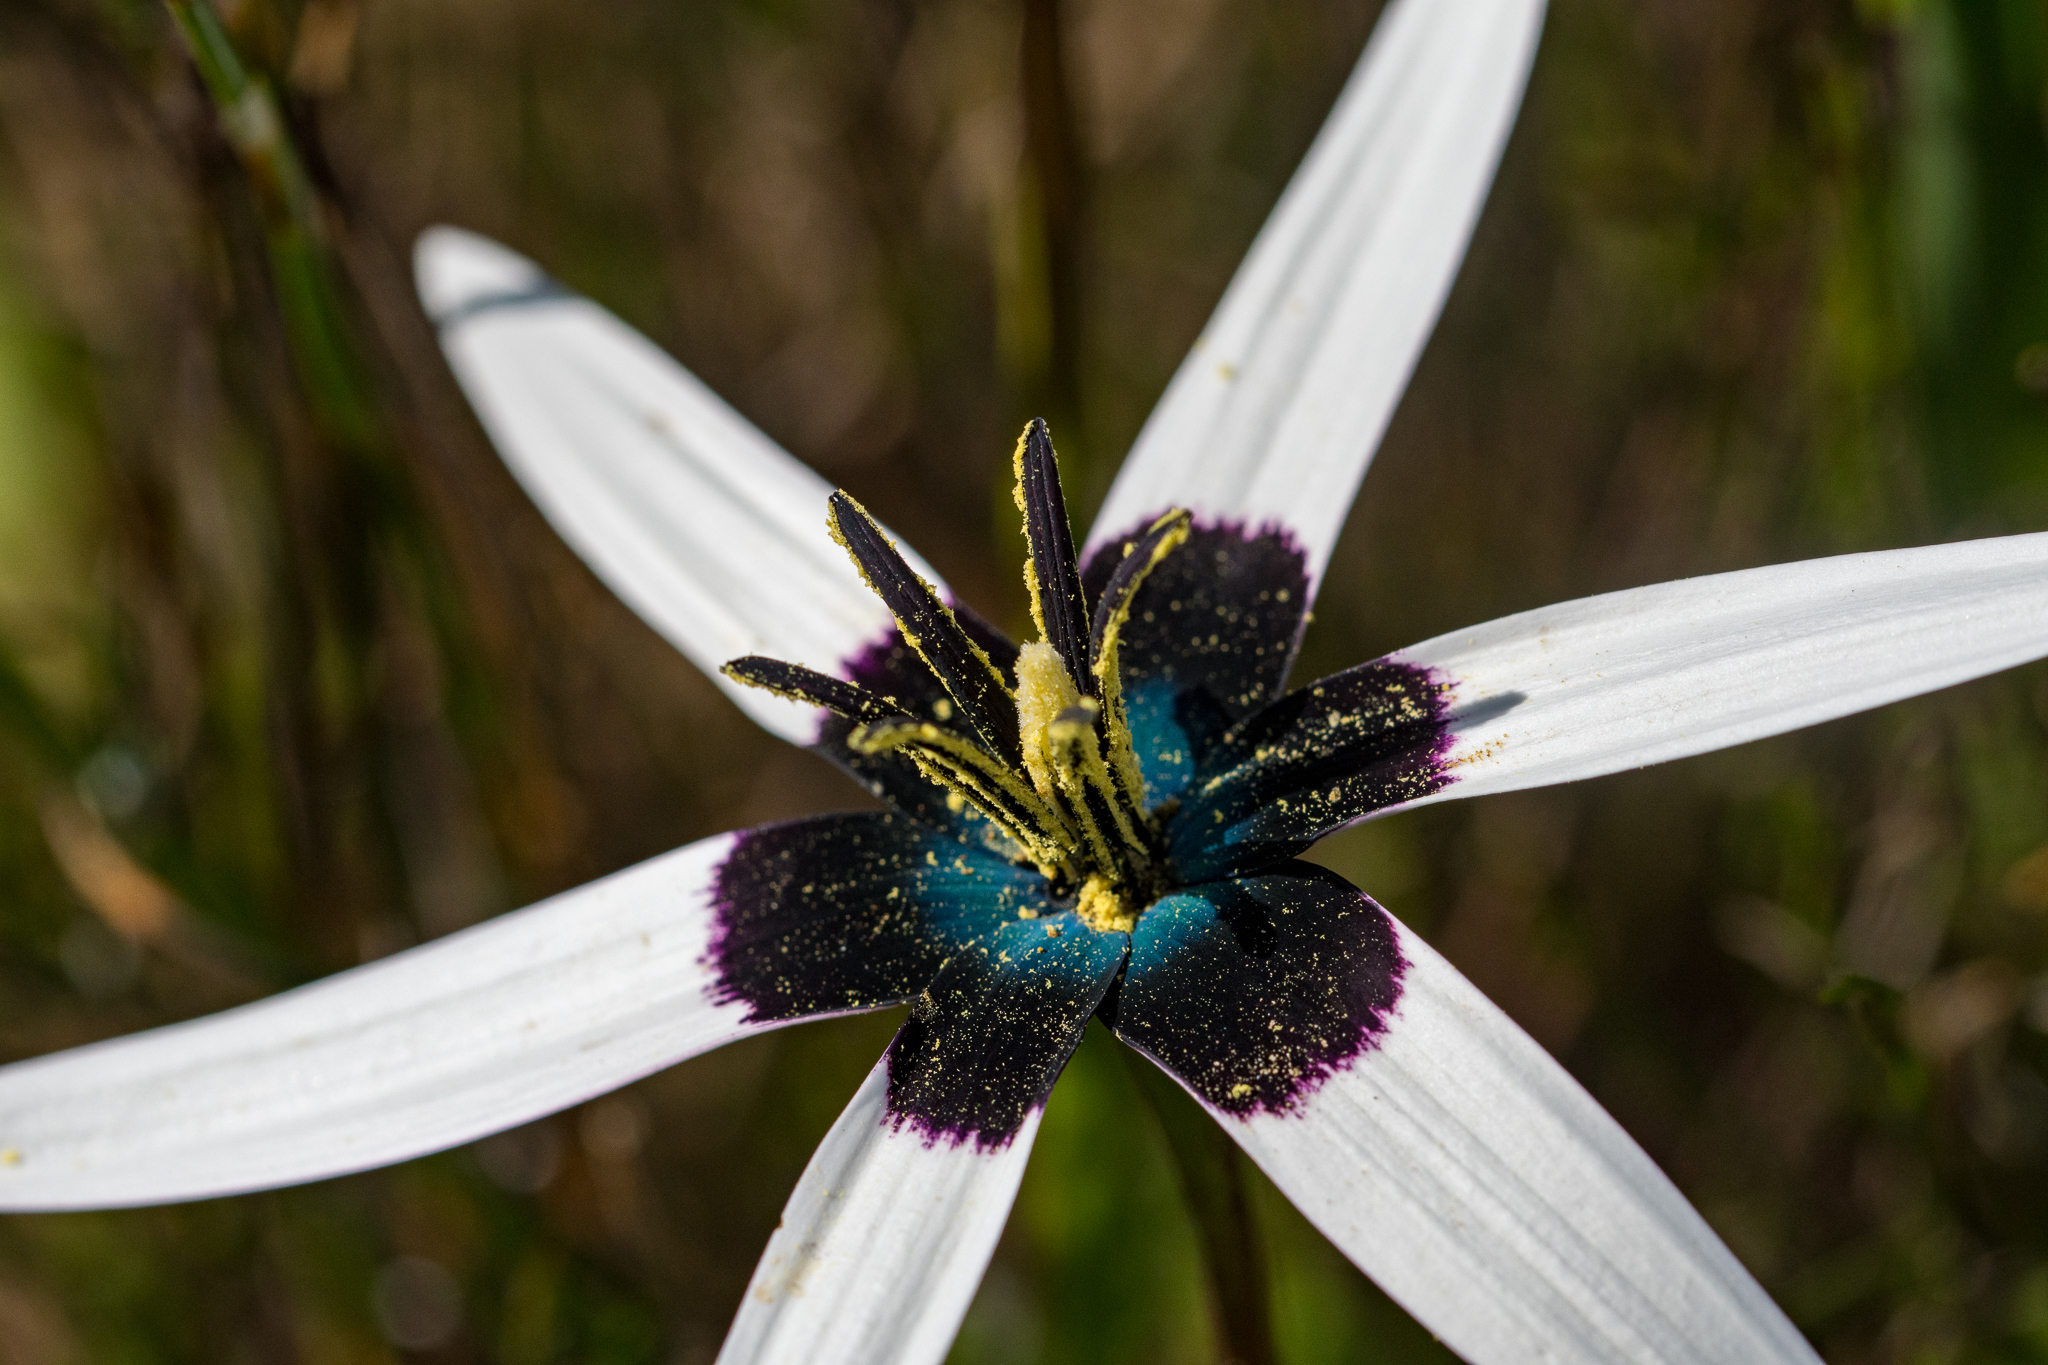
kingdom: Plantae
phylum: Tracheophyta
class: Liliopsida
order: Asparagales
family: Hypoxidaceae
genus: Pauridia
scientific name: Pauridia capensis
